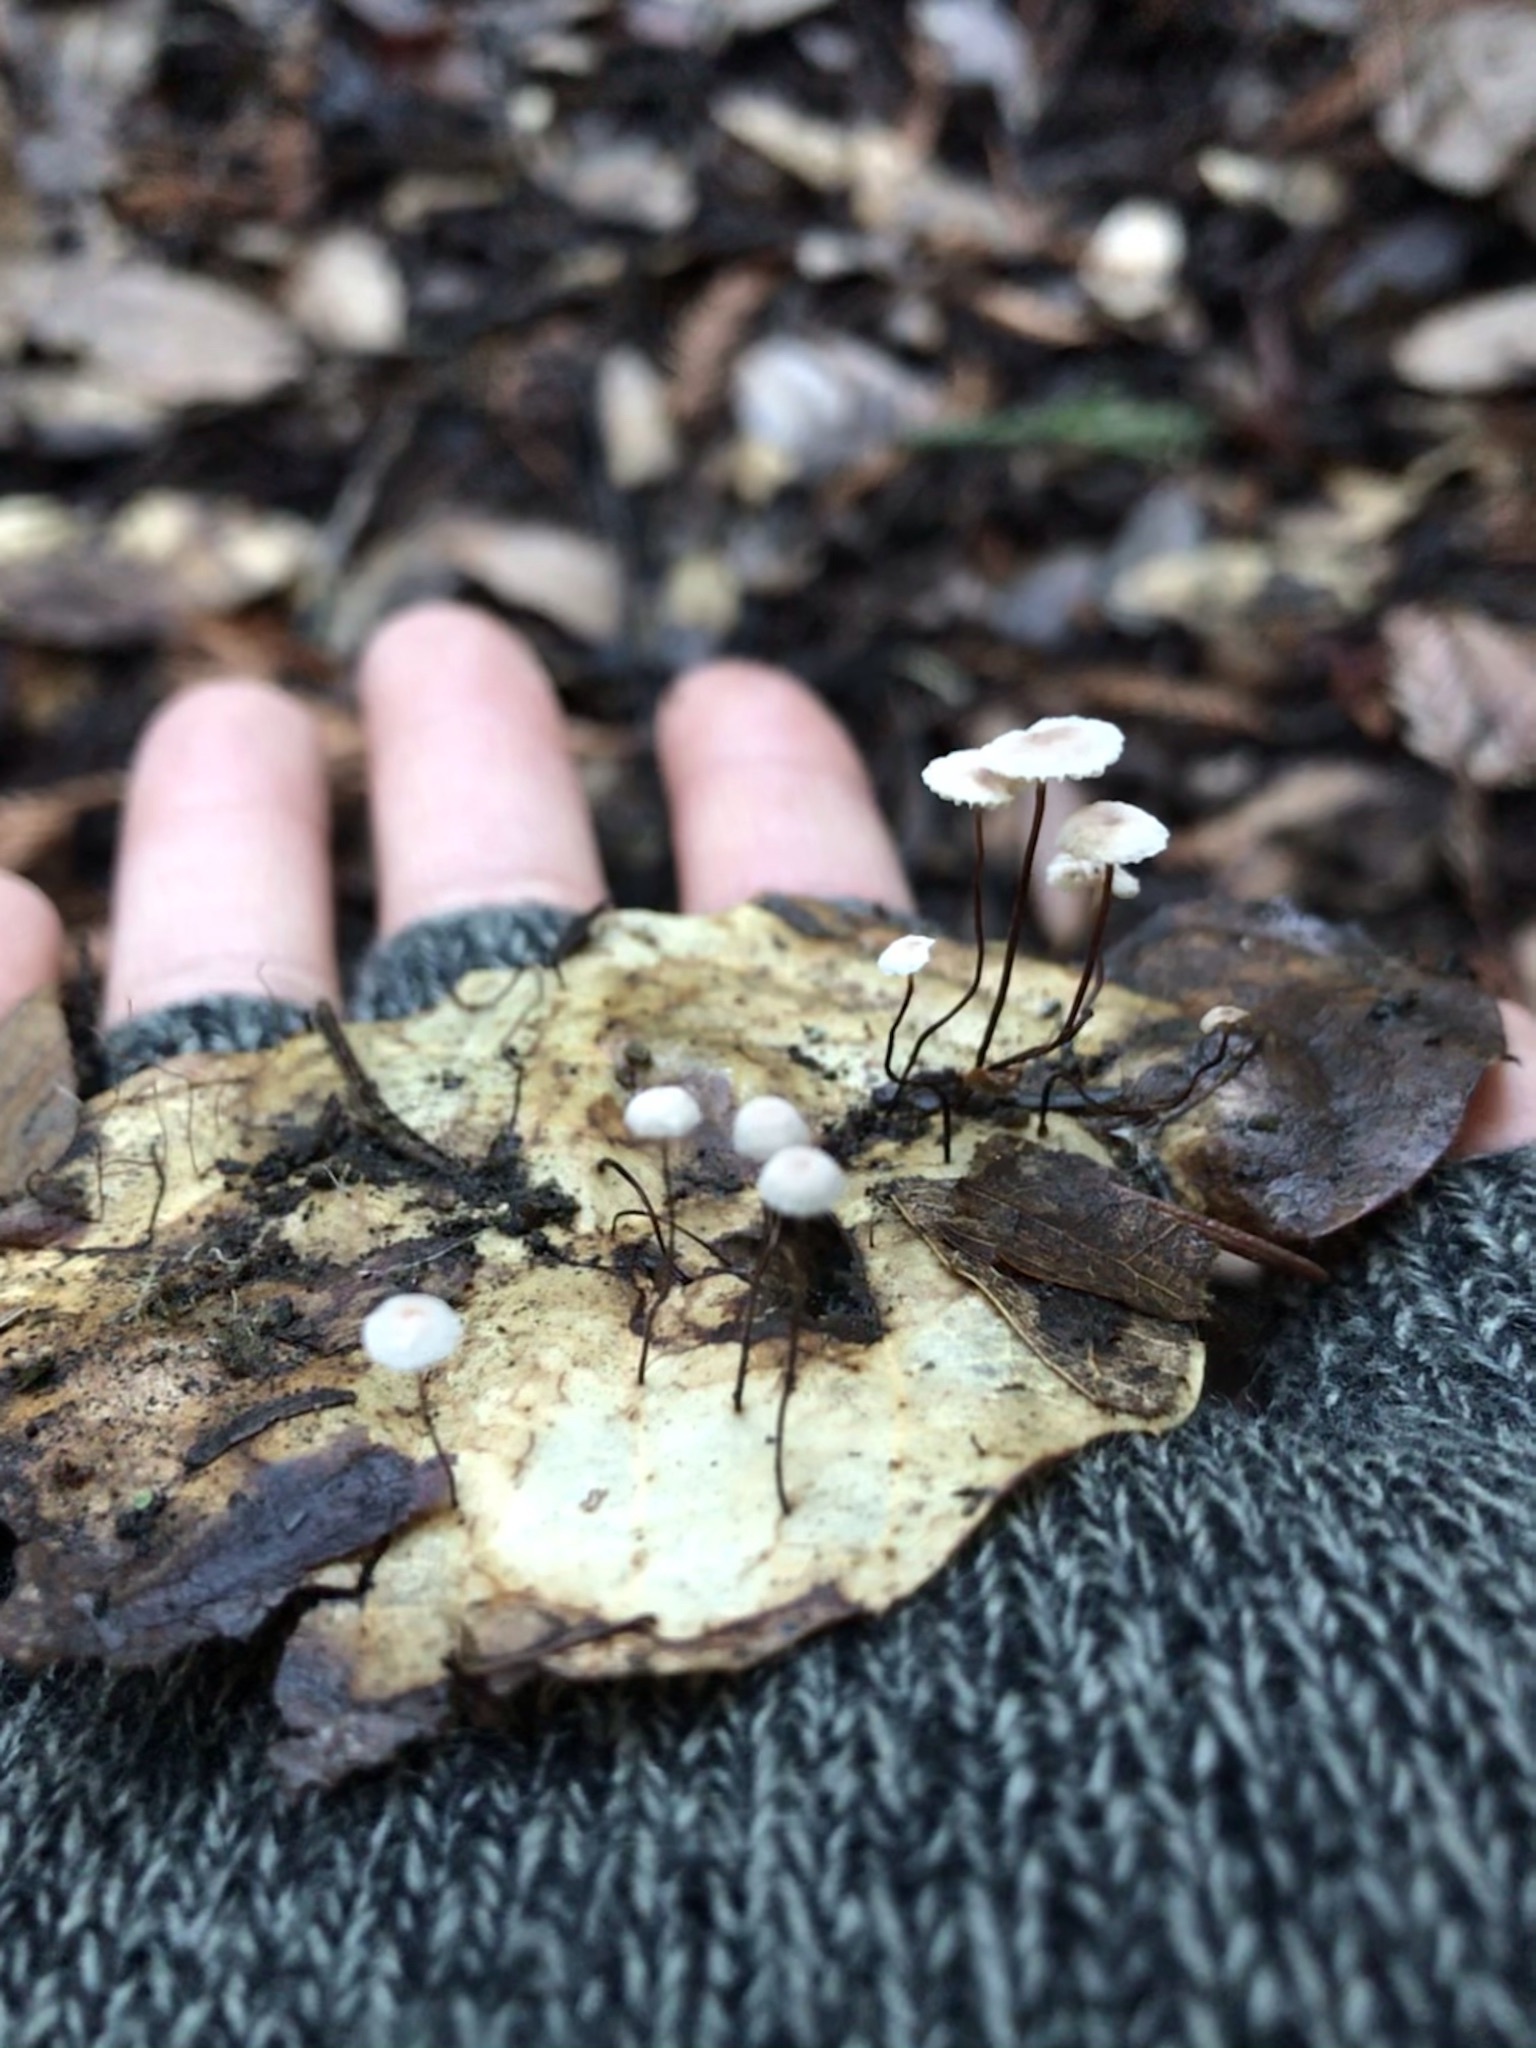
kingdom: Fungi
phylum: Basidiomycota
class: Agaricomycetes
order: Agaricales
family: Omphalotaceae
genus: Collybiopsis
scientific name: Collybiopsis quercophila
